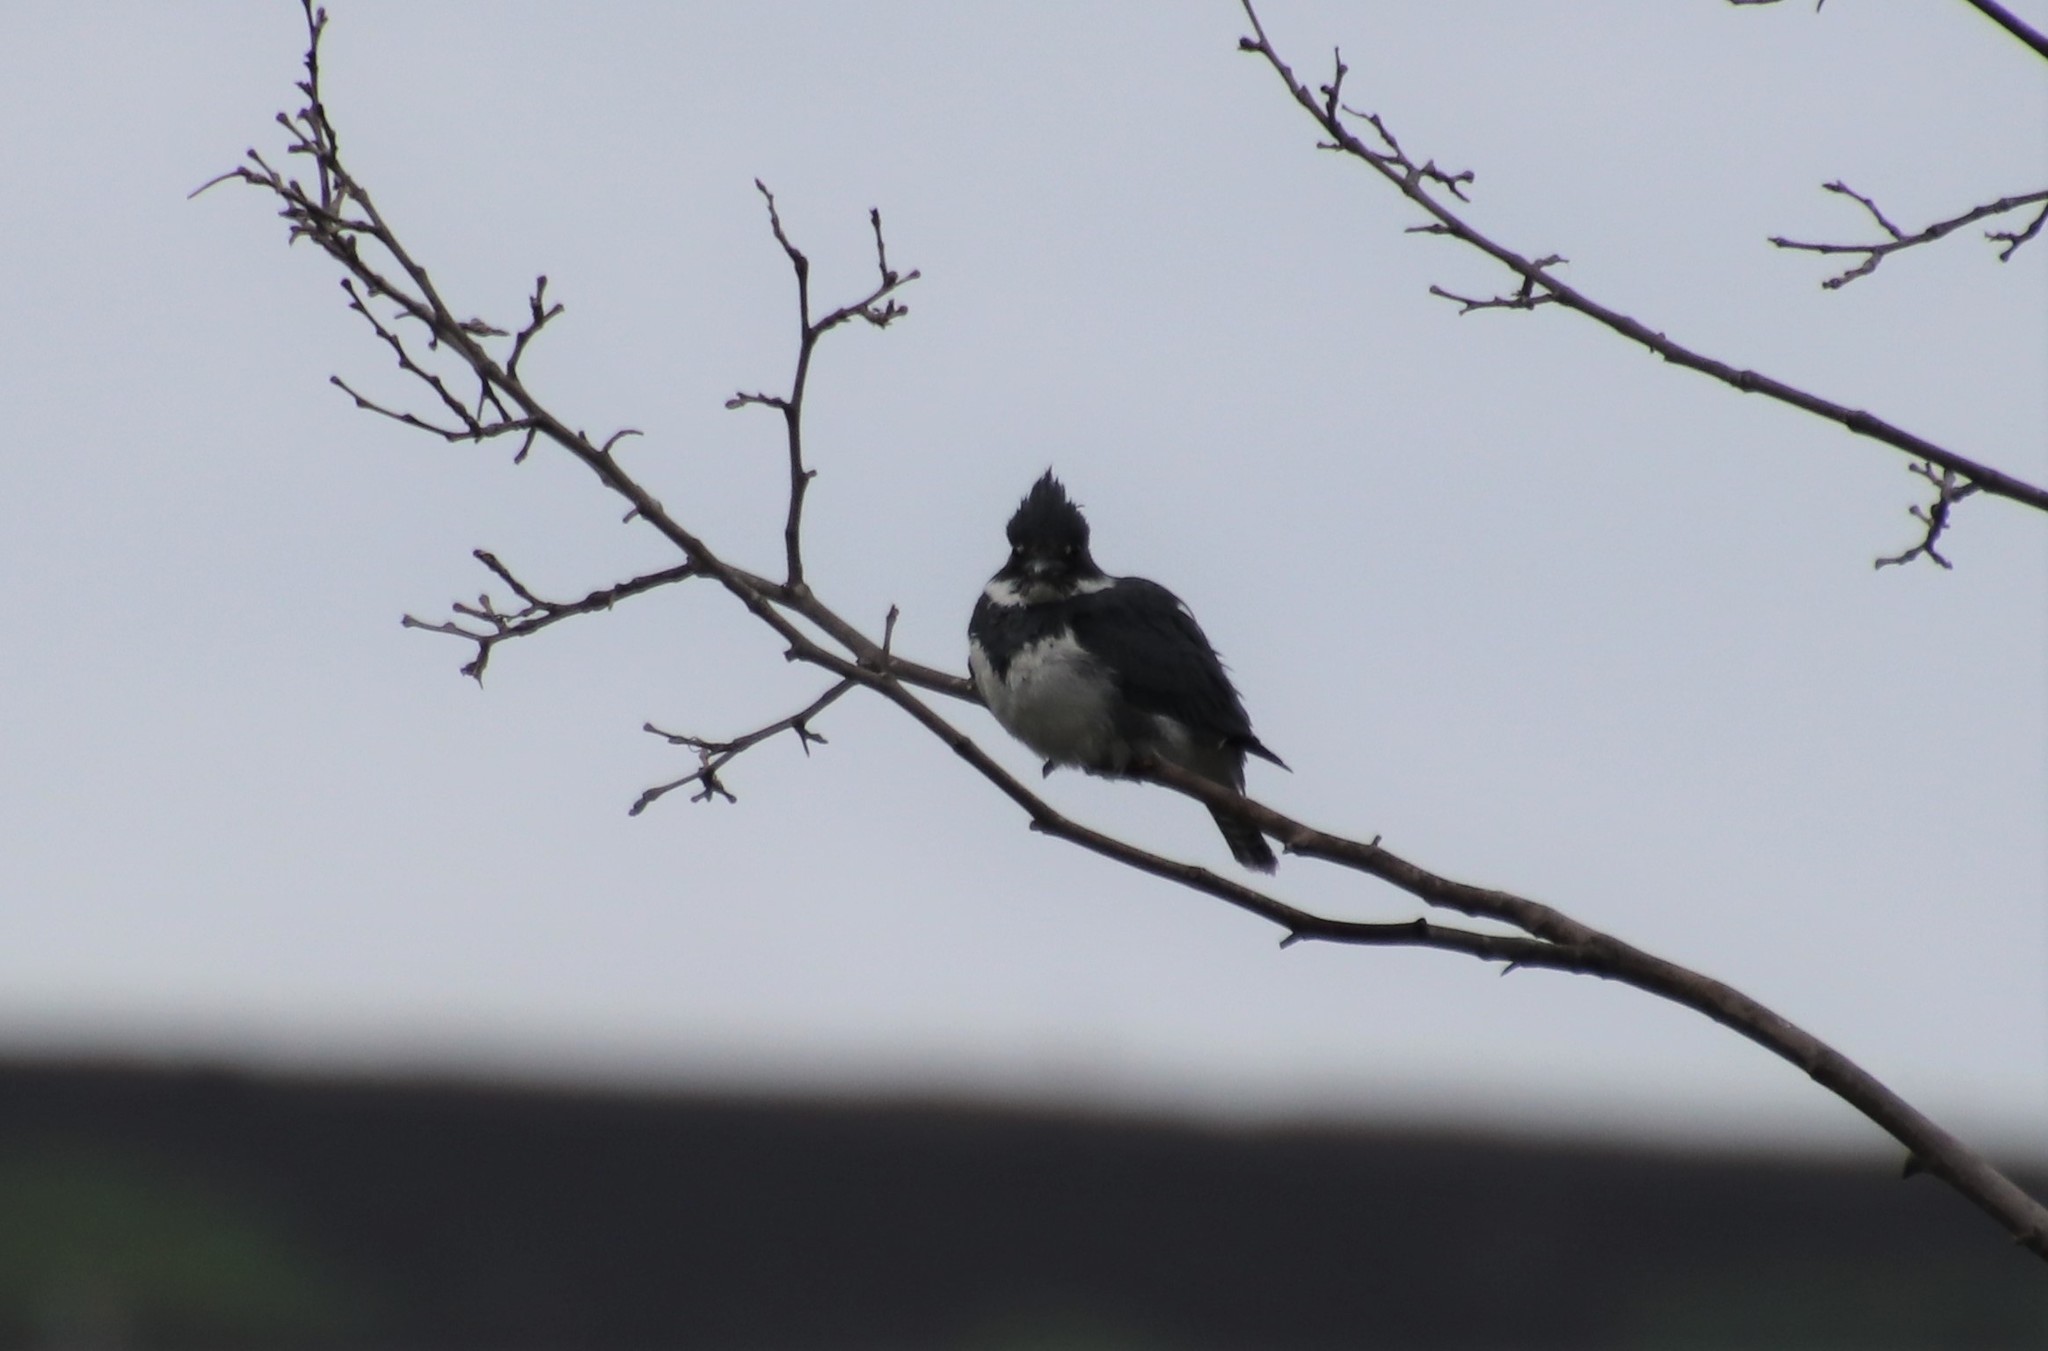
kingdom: Animalia
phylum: Chordata
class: Aves
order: Coraciiformes
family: Alcedinidae
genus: Megaceryle
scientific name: Megaceryle alcyon
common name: Belted kingfisher
